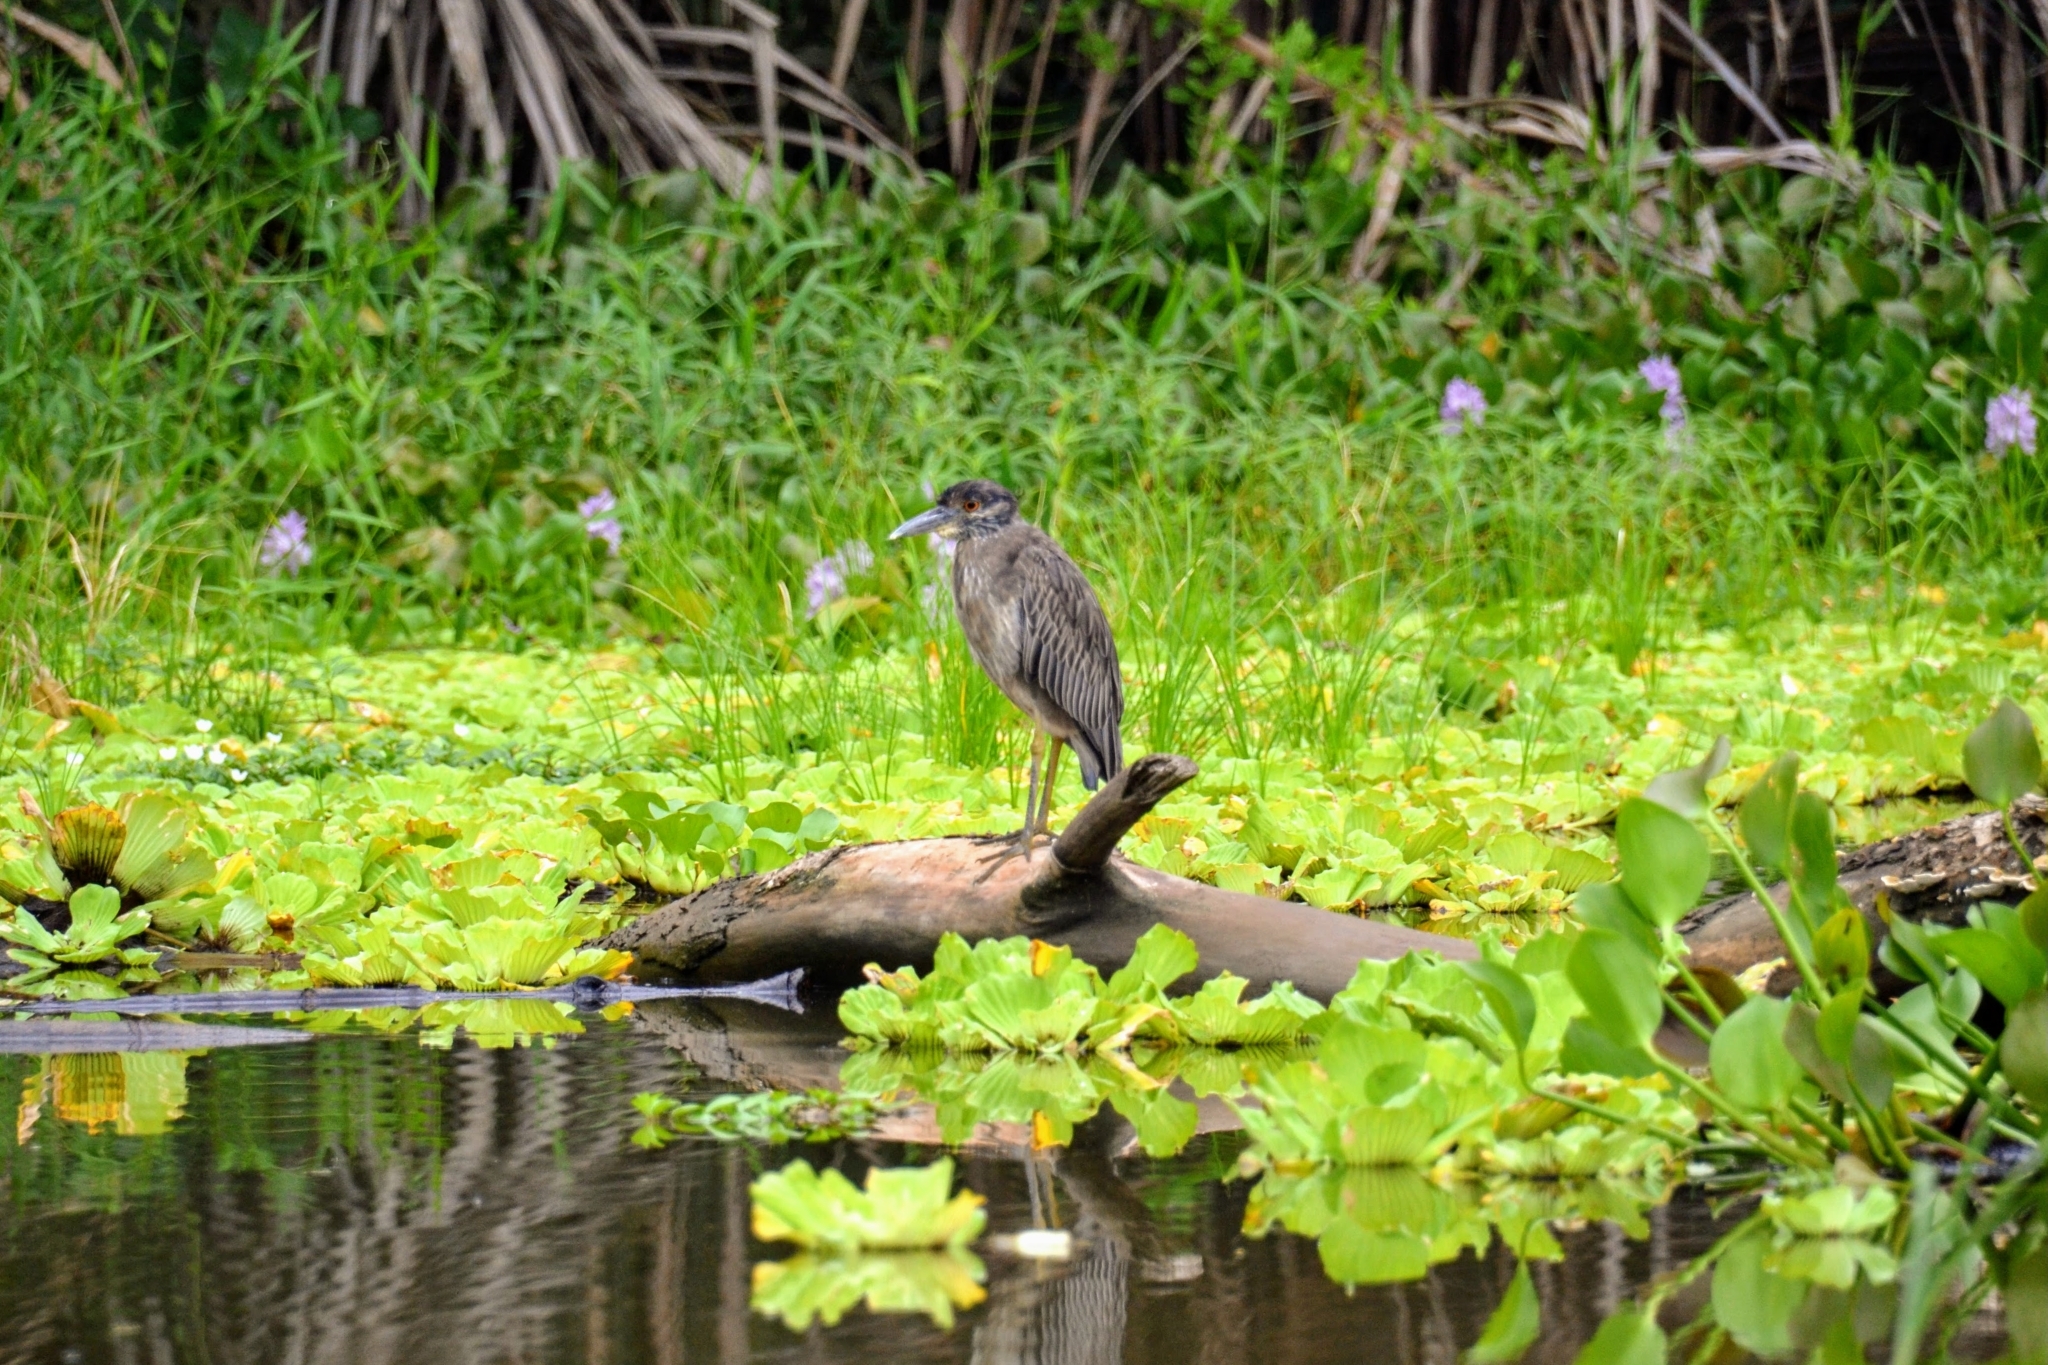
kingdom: Animalia
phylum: Chordata
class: Aves
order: Pelecaniformes
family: Ardeidae
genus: Nyctanassa
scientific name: Nyctanassa violacea
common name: Yellow-crowned night heron
